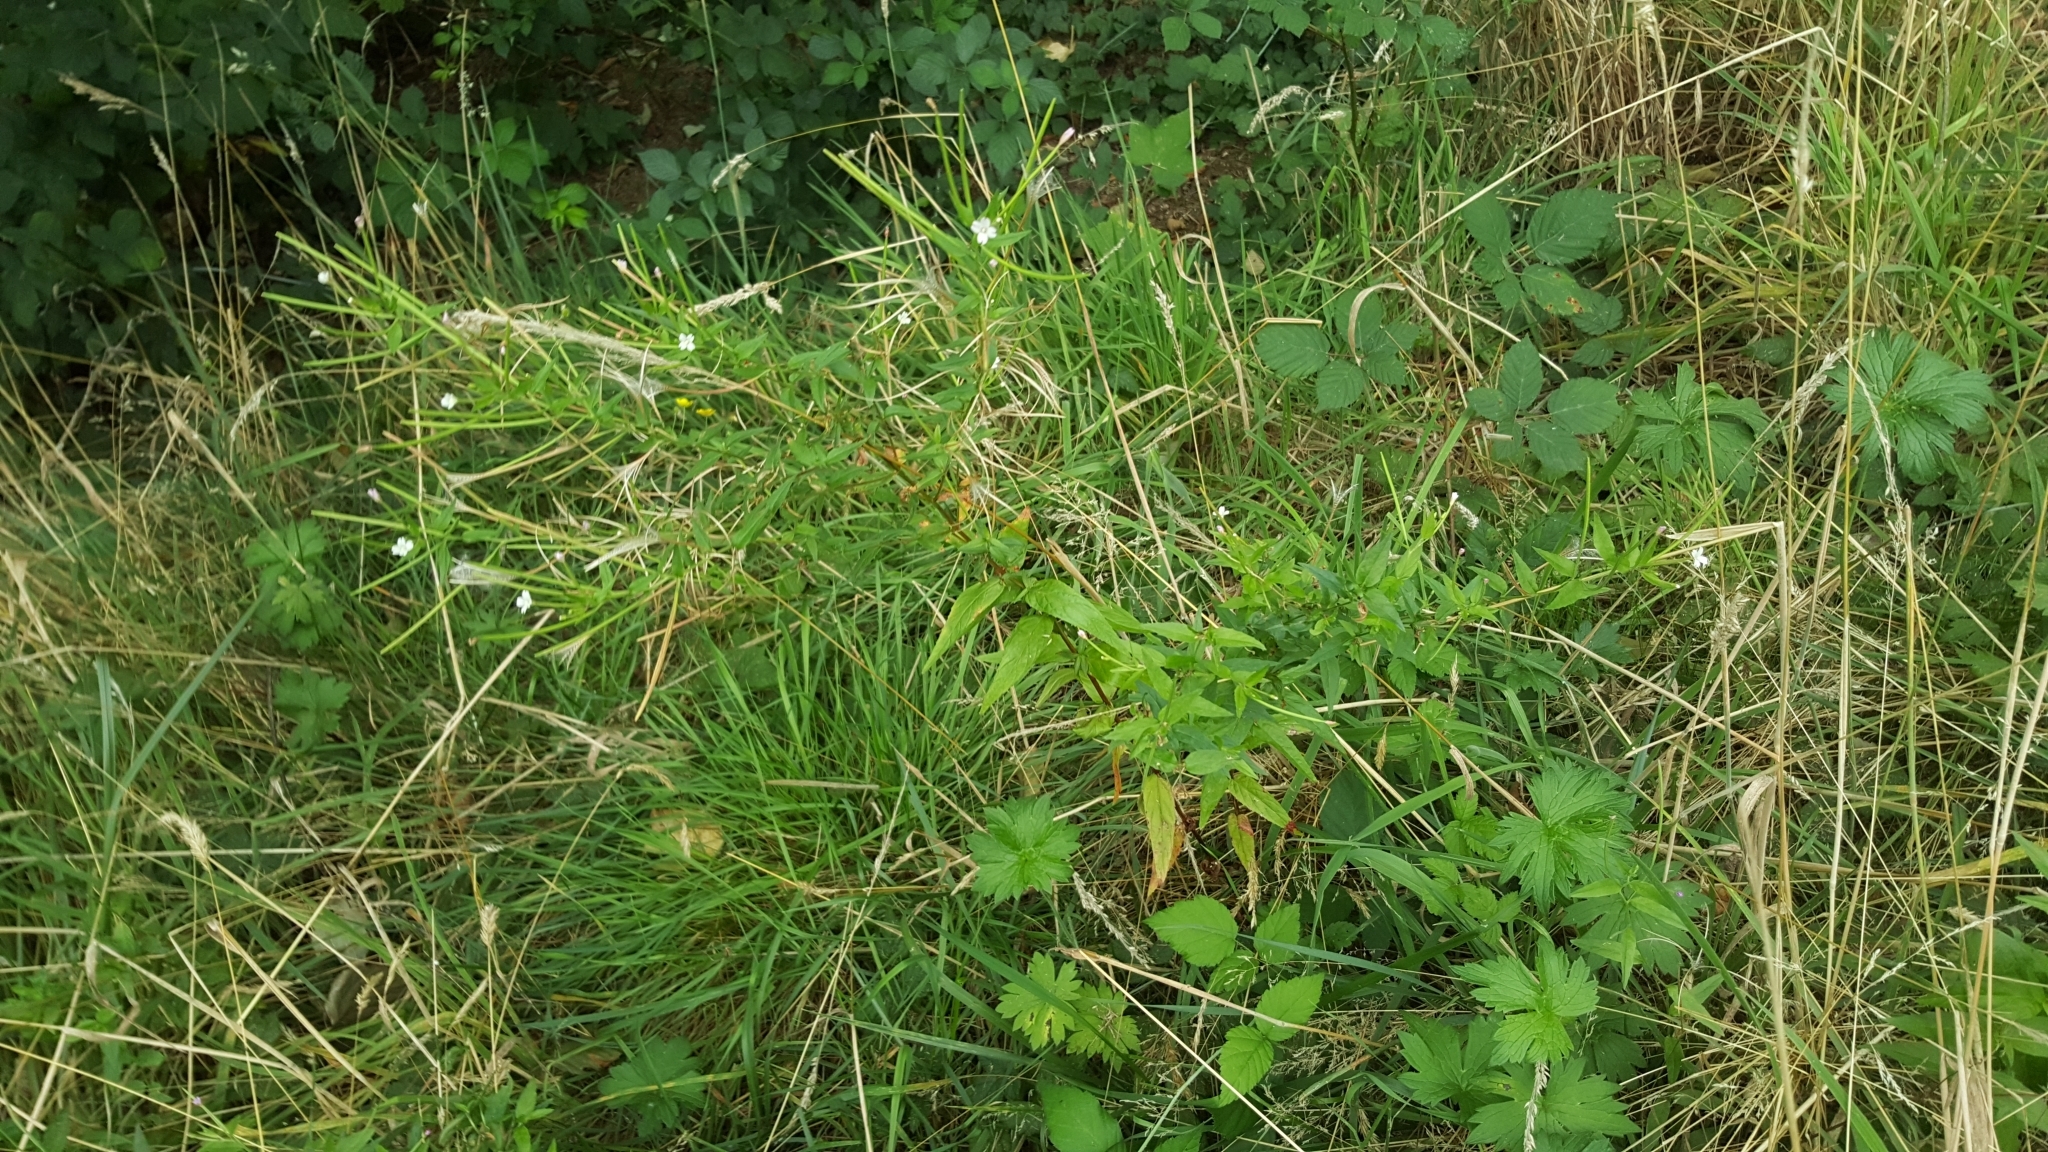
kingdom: Plantae
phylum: Tracheophyta
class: Magnoliopsida
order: Myrtales
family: Onagraceae
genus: Epilobium
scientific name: Epilobium ciliatum
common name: American willowherb
